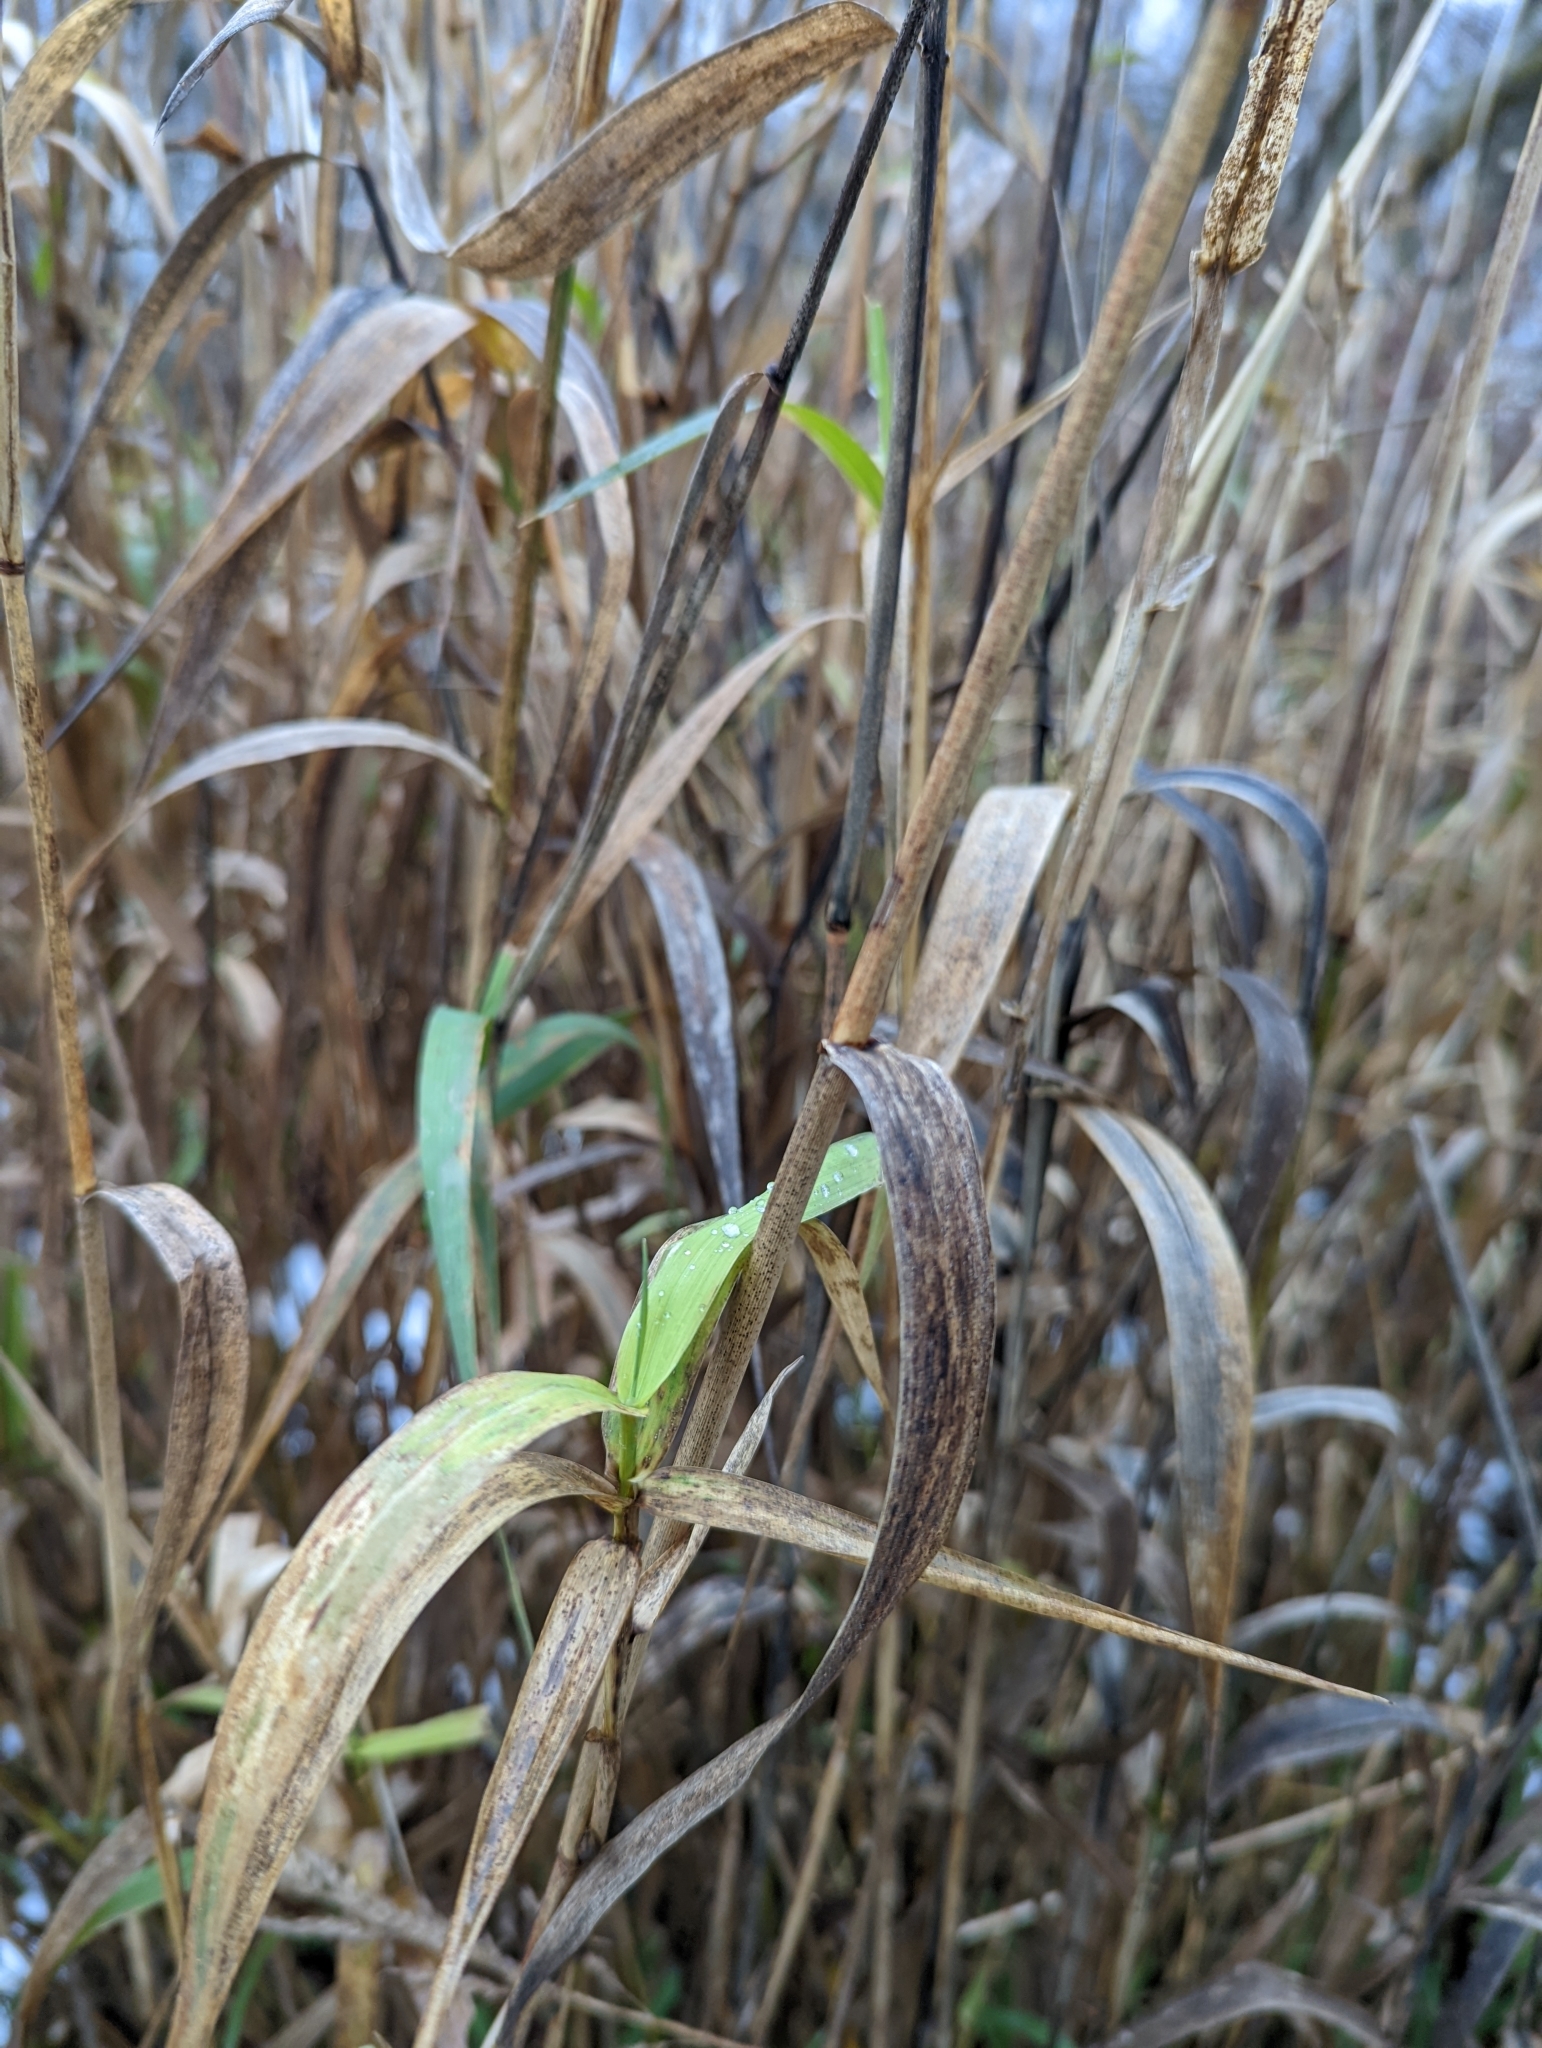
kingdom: Plantae
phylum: Tracheophyta
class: Liliopsida
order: Poales
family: Poaceae
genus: Phalaris
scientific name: Phalaris arundinacea
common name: Reed canary-grass
